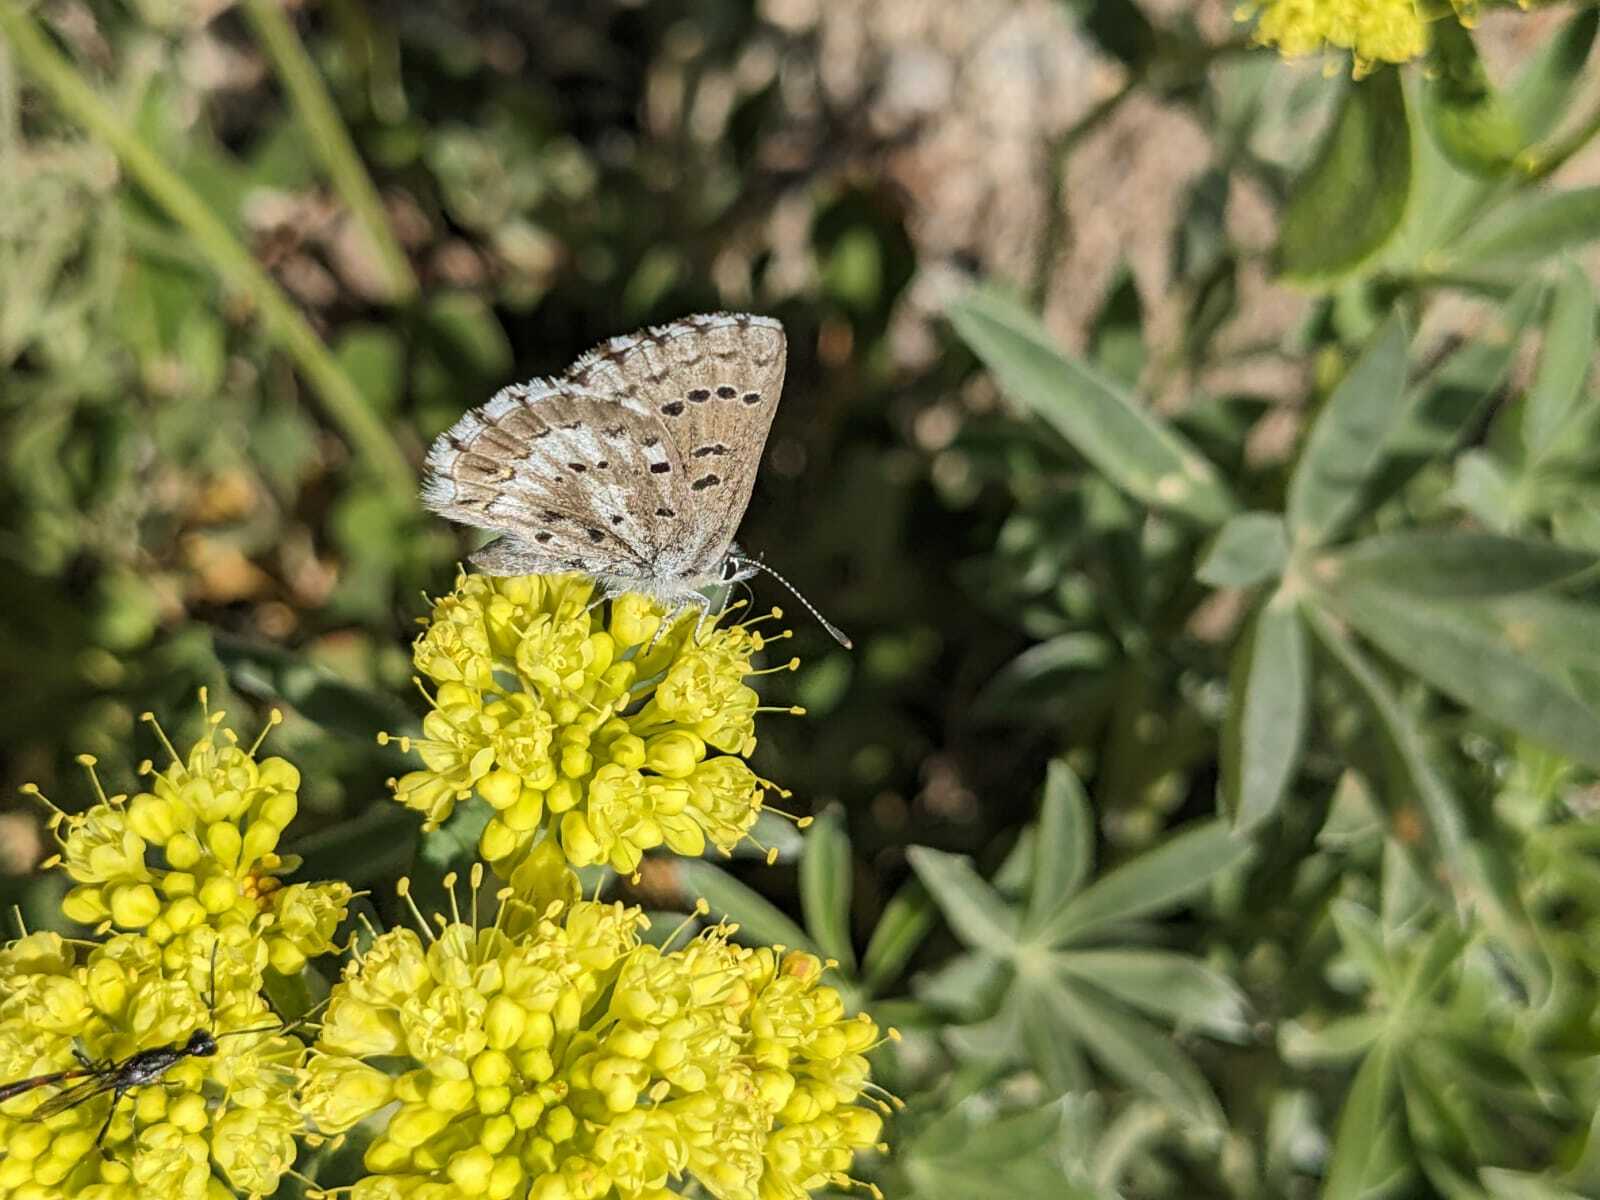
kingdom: Animalia
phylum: Arthropoda
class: Insecta
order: Lepidoptera
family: Lycaenidae
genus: Glaucopsyche
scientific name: Glaucopsyche piasus
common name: Arrowhead blue
